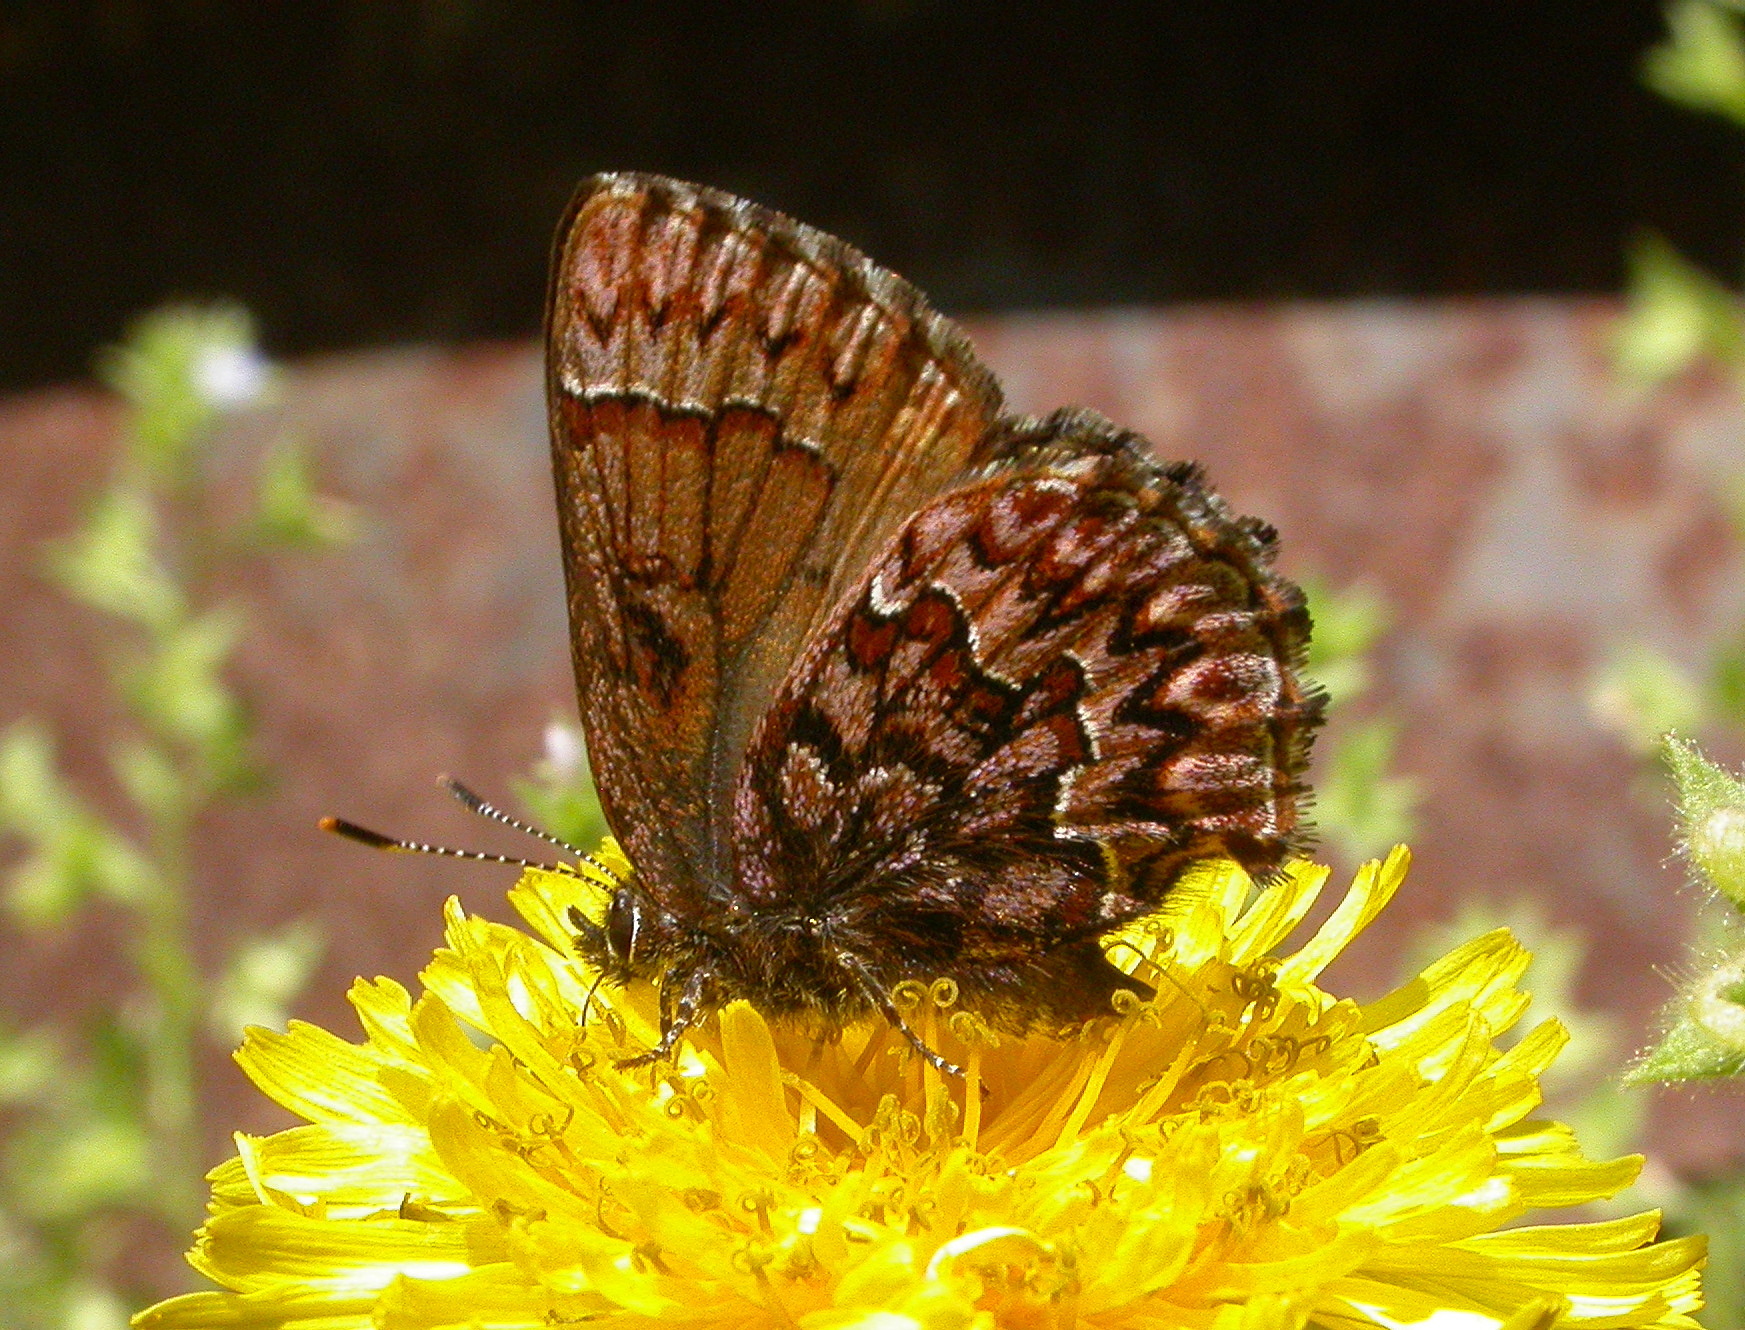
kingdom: Animalia
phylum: Arthropoda
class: Insecta
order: Lepidoptera
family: Lycaenidae
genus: Incisalia
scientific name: Incisalia eryphon
